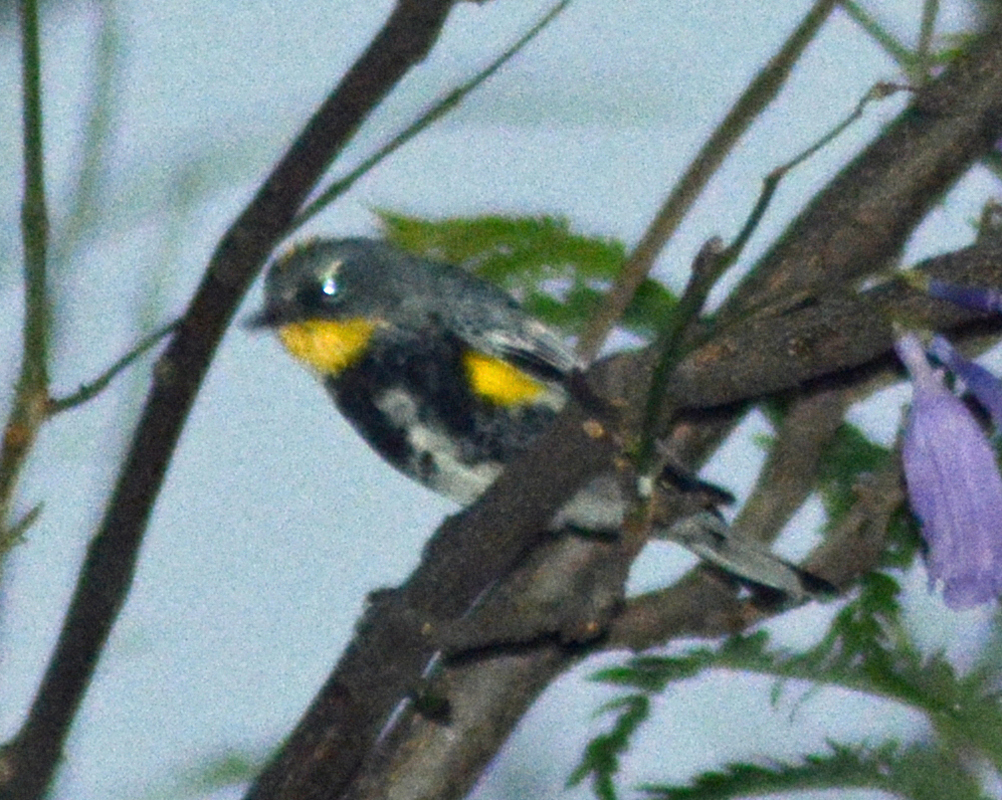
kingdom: Animalia
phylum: Chordata
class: Aves
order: Passeriformes
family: Parulidae
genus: Setophaga
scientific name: Setophaga coronata
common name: Myrtle warbler
